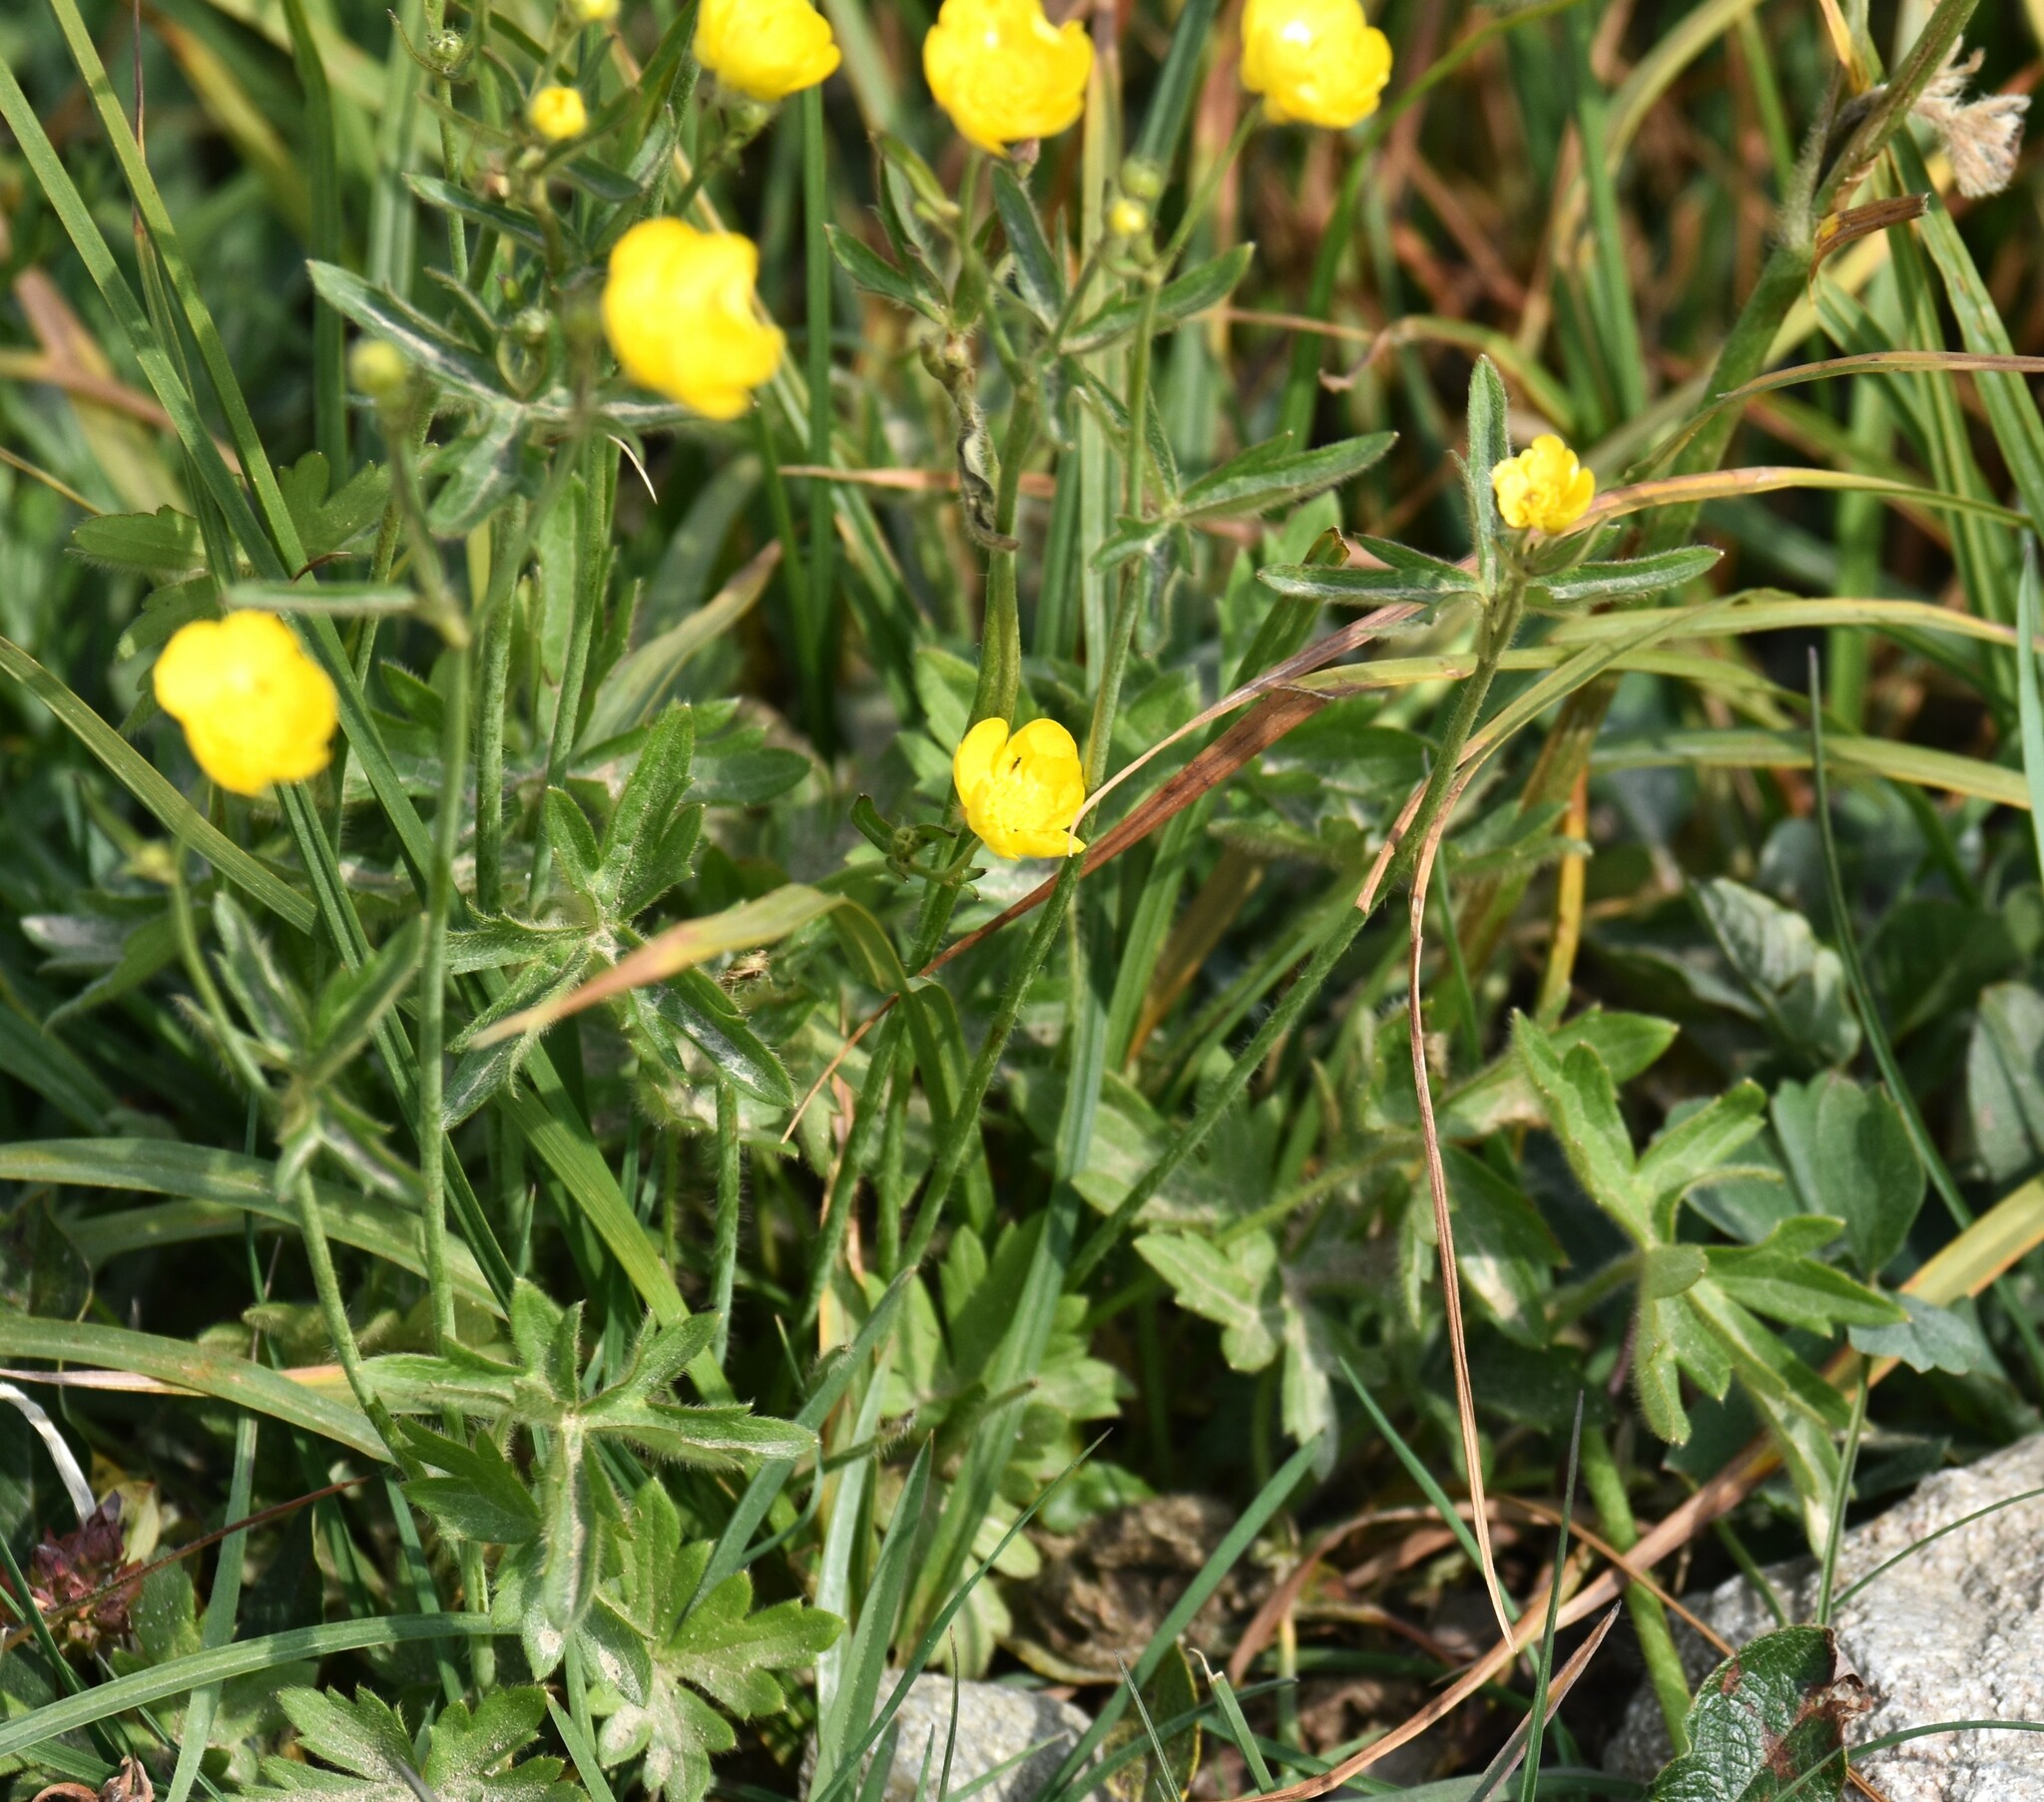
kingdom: Plantae
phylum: Tracheophyta
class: Magnoliopsida
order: Ranunculales
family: Ranunculaceae
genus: Ranunculus
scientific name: Ranunculus acris
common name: Meadow buttercup
